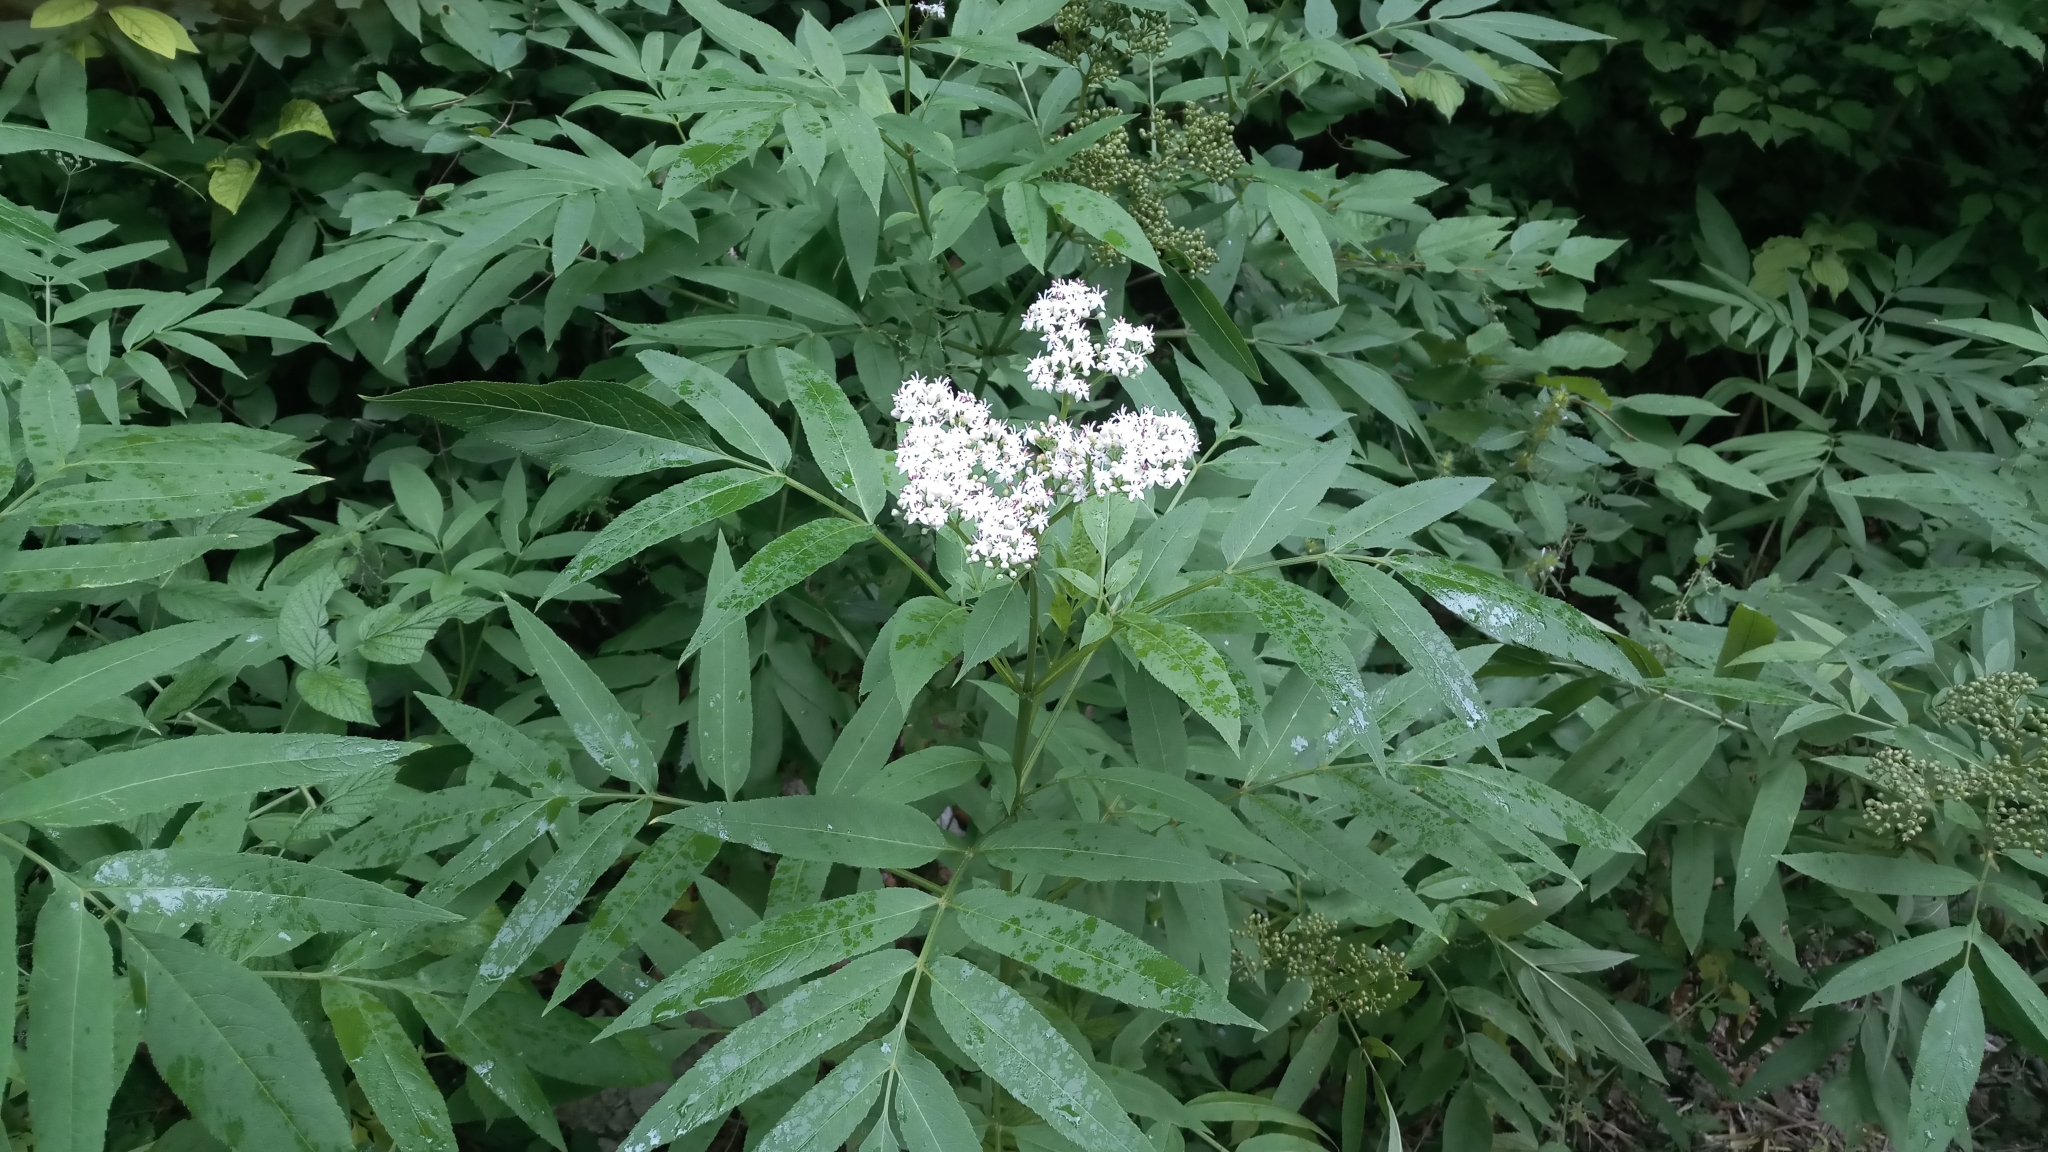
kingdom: Plantae
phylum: Tracheophyta
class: Magnoliopsida
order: Dipsacales
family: Viburnaceae
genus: Sambucus
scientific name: Sambucus ebulus
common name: Dwarf elder
